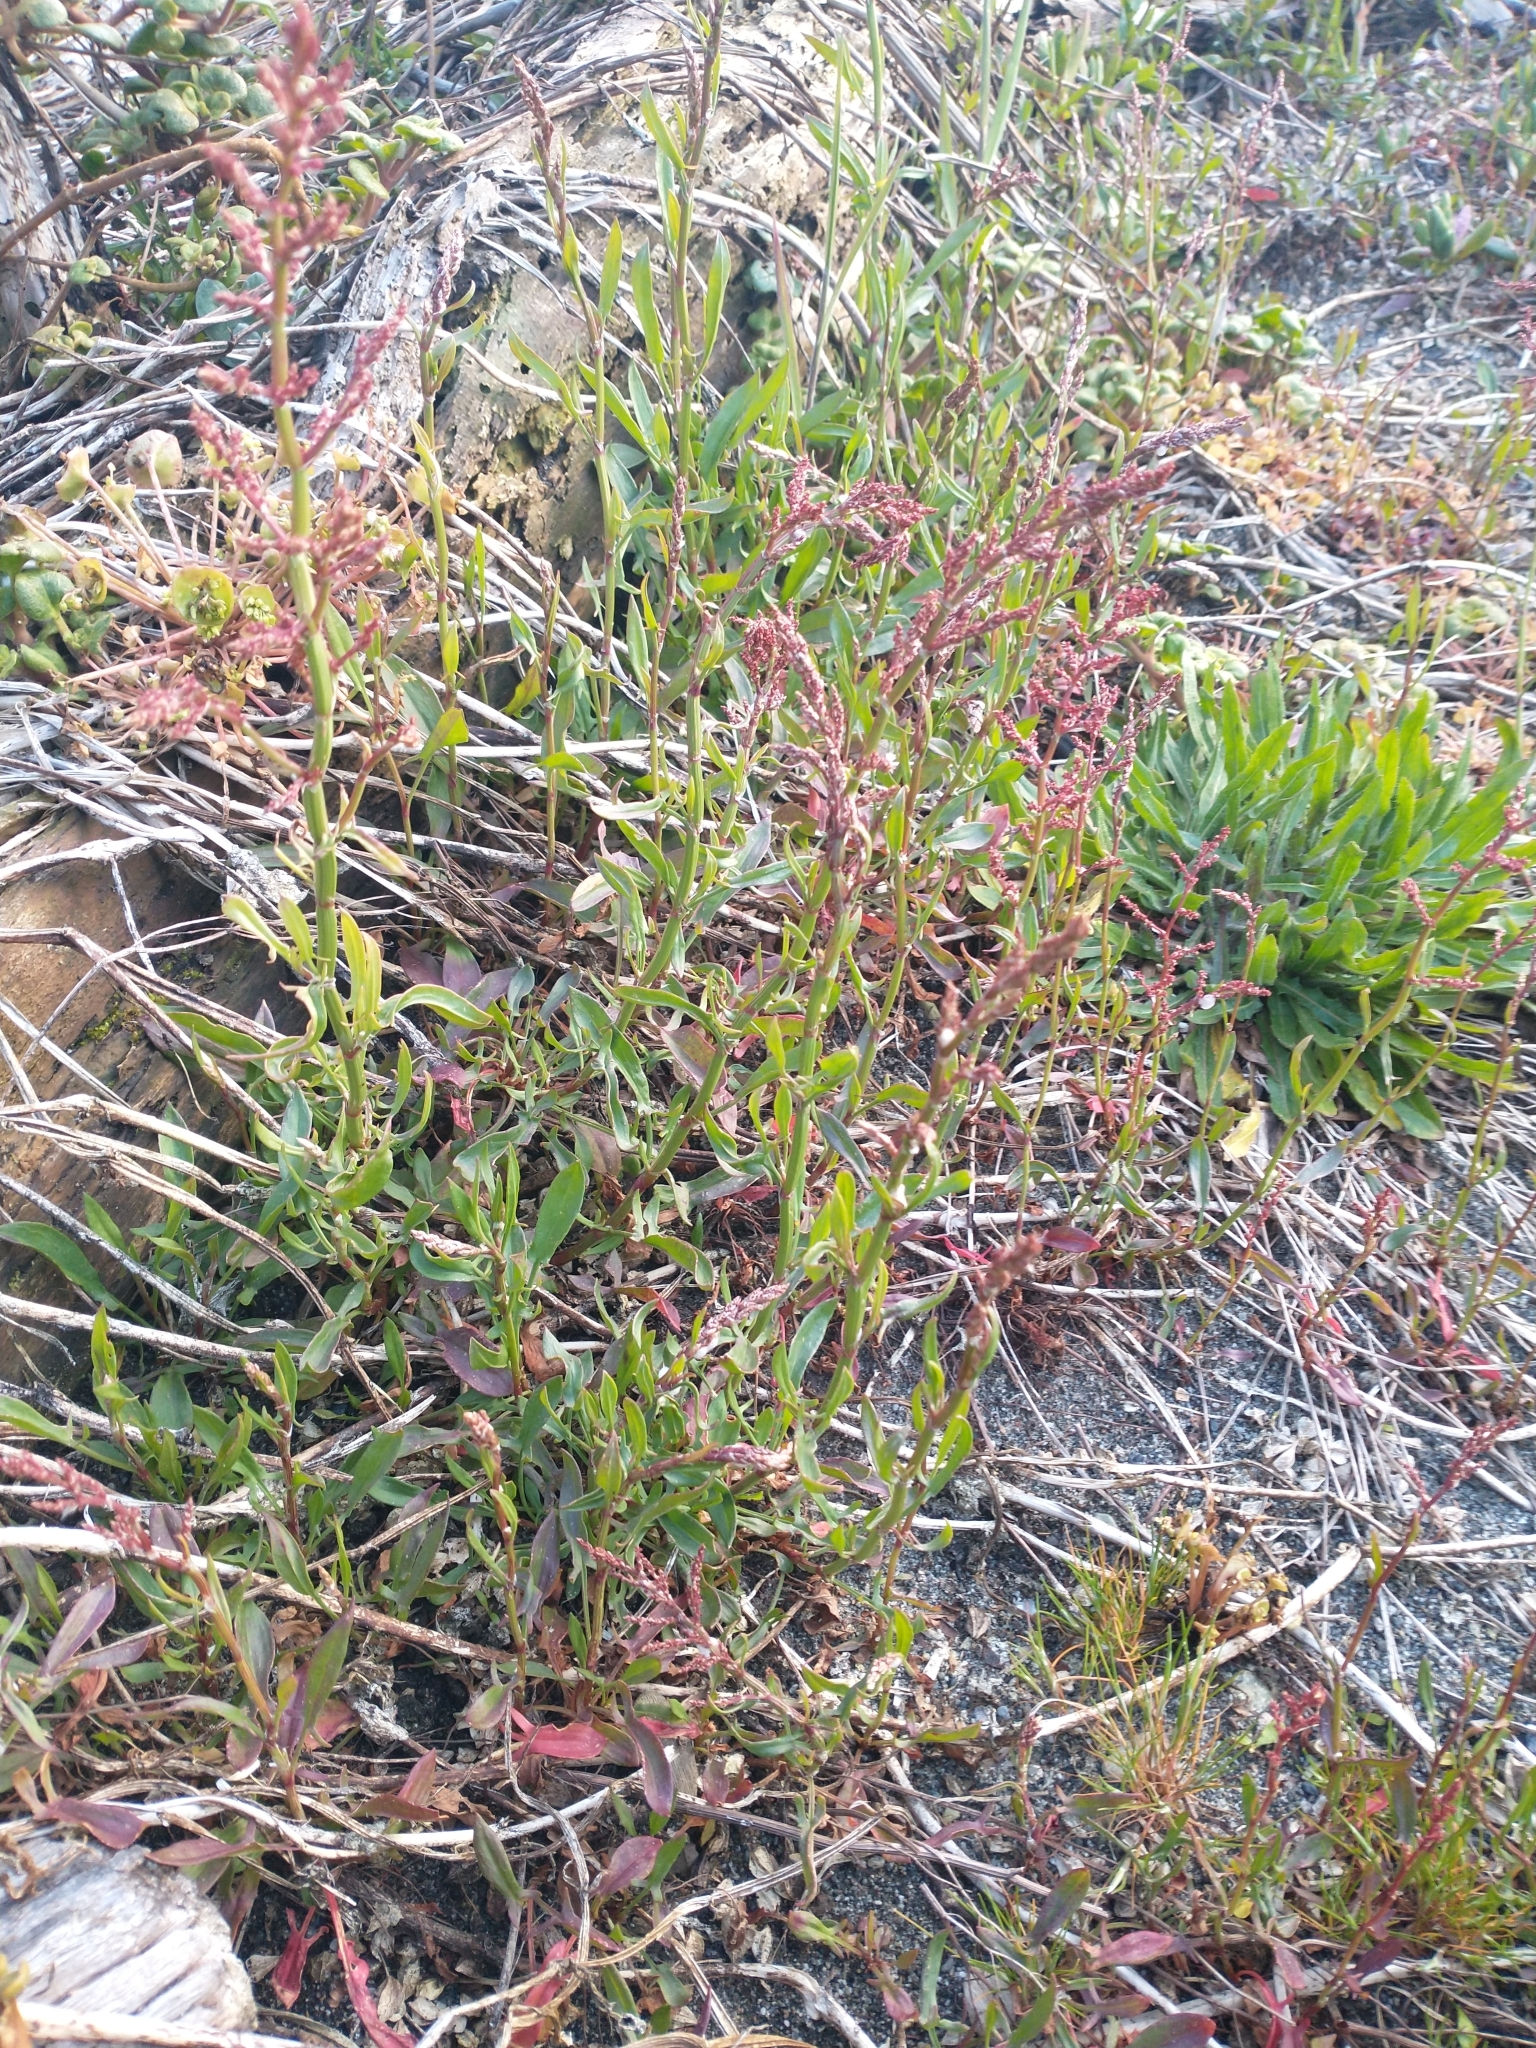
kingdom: Plantae
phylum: Tracheophyta
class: Magnoliopsida
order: Caryophyllales
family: Polygonaceae
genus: Rumex
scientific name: Rumex acetosella
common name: Common sheep sorrel
